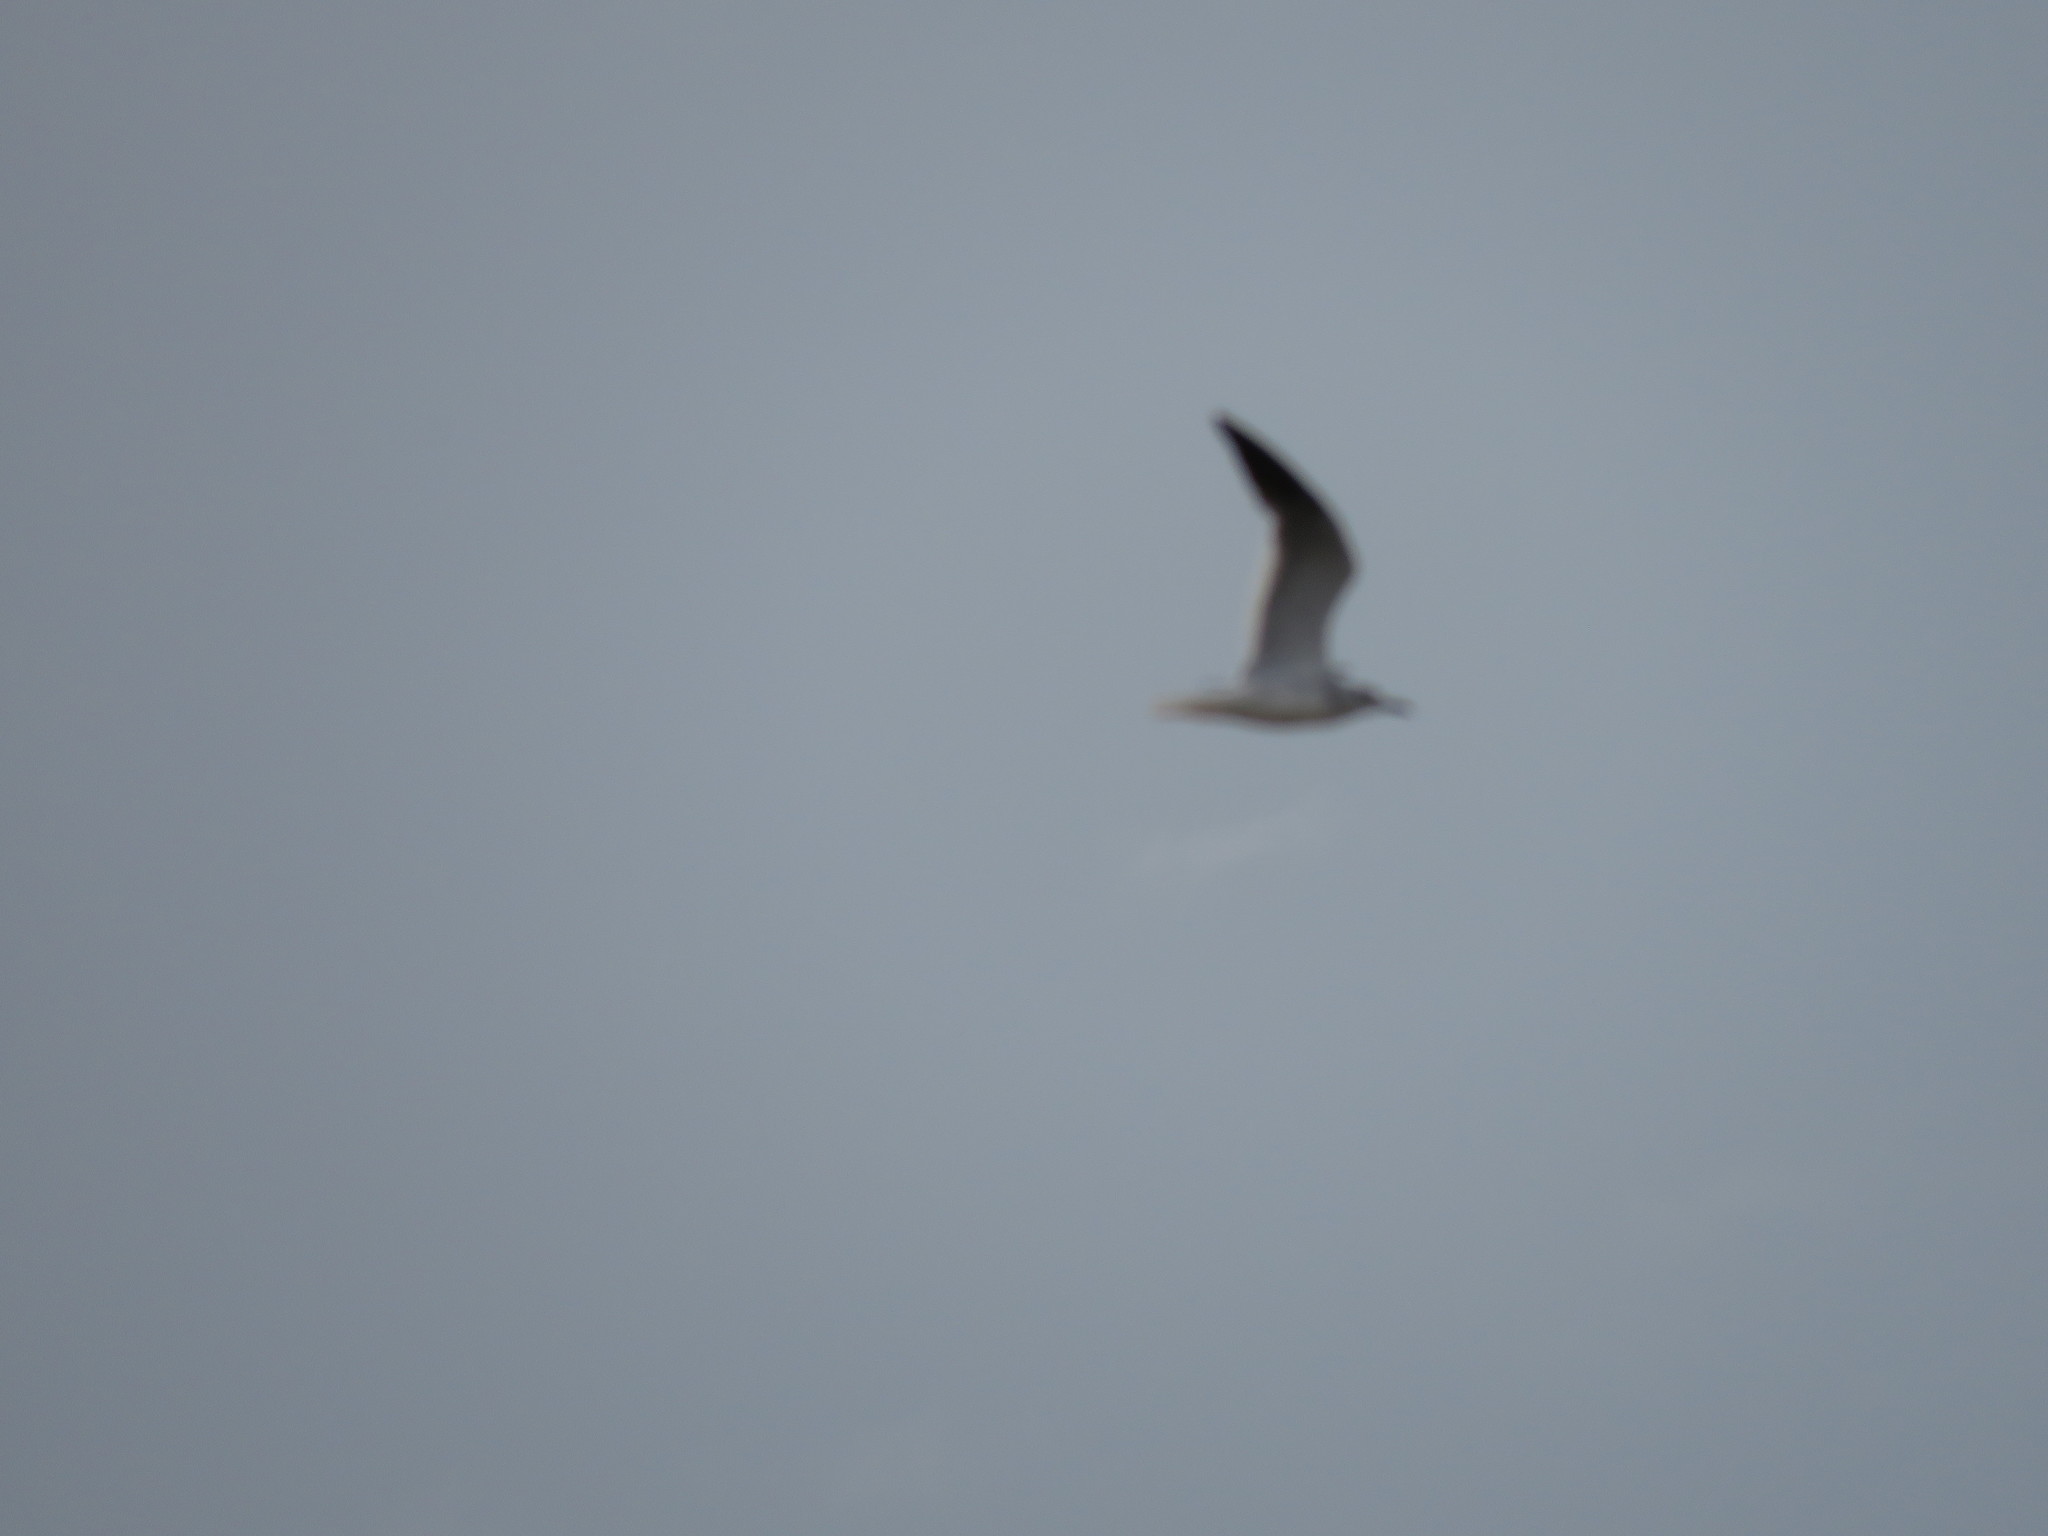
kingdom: Animalia
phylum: Chordata
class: Aves
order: Charadriiformes
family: Laridae
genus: Leucophaeus
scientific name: Leucophaeus atricilla
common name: Laughing gull
